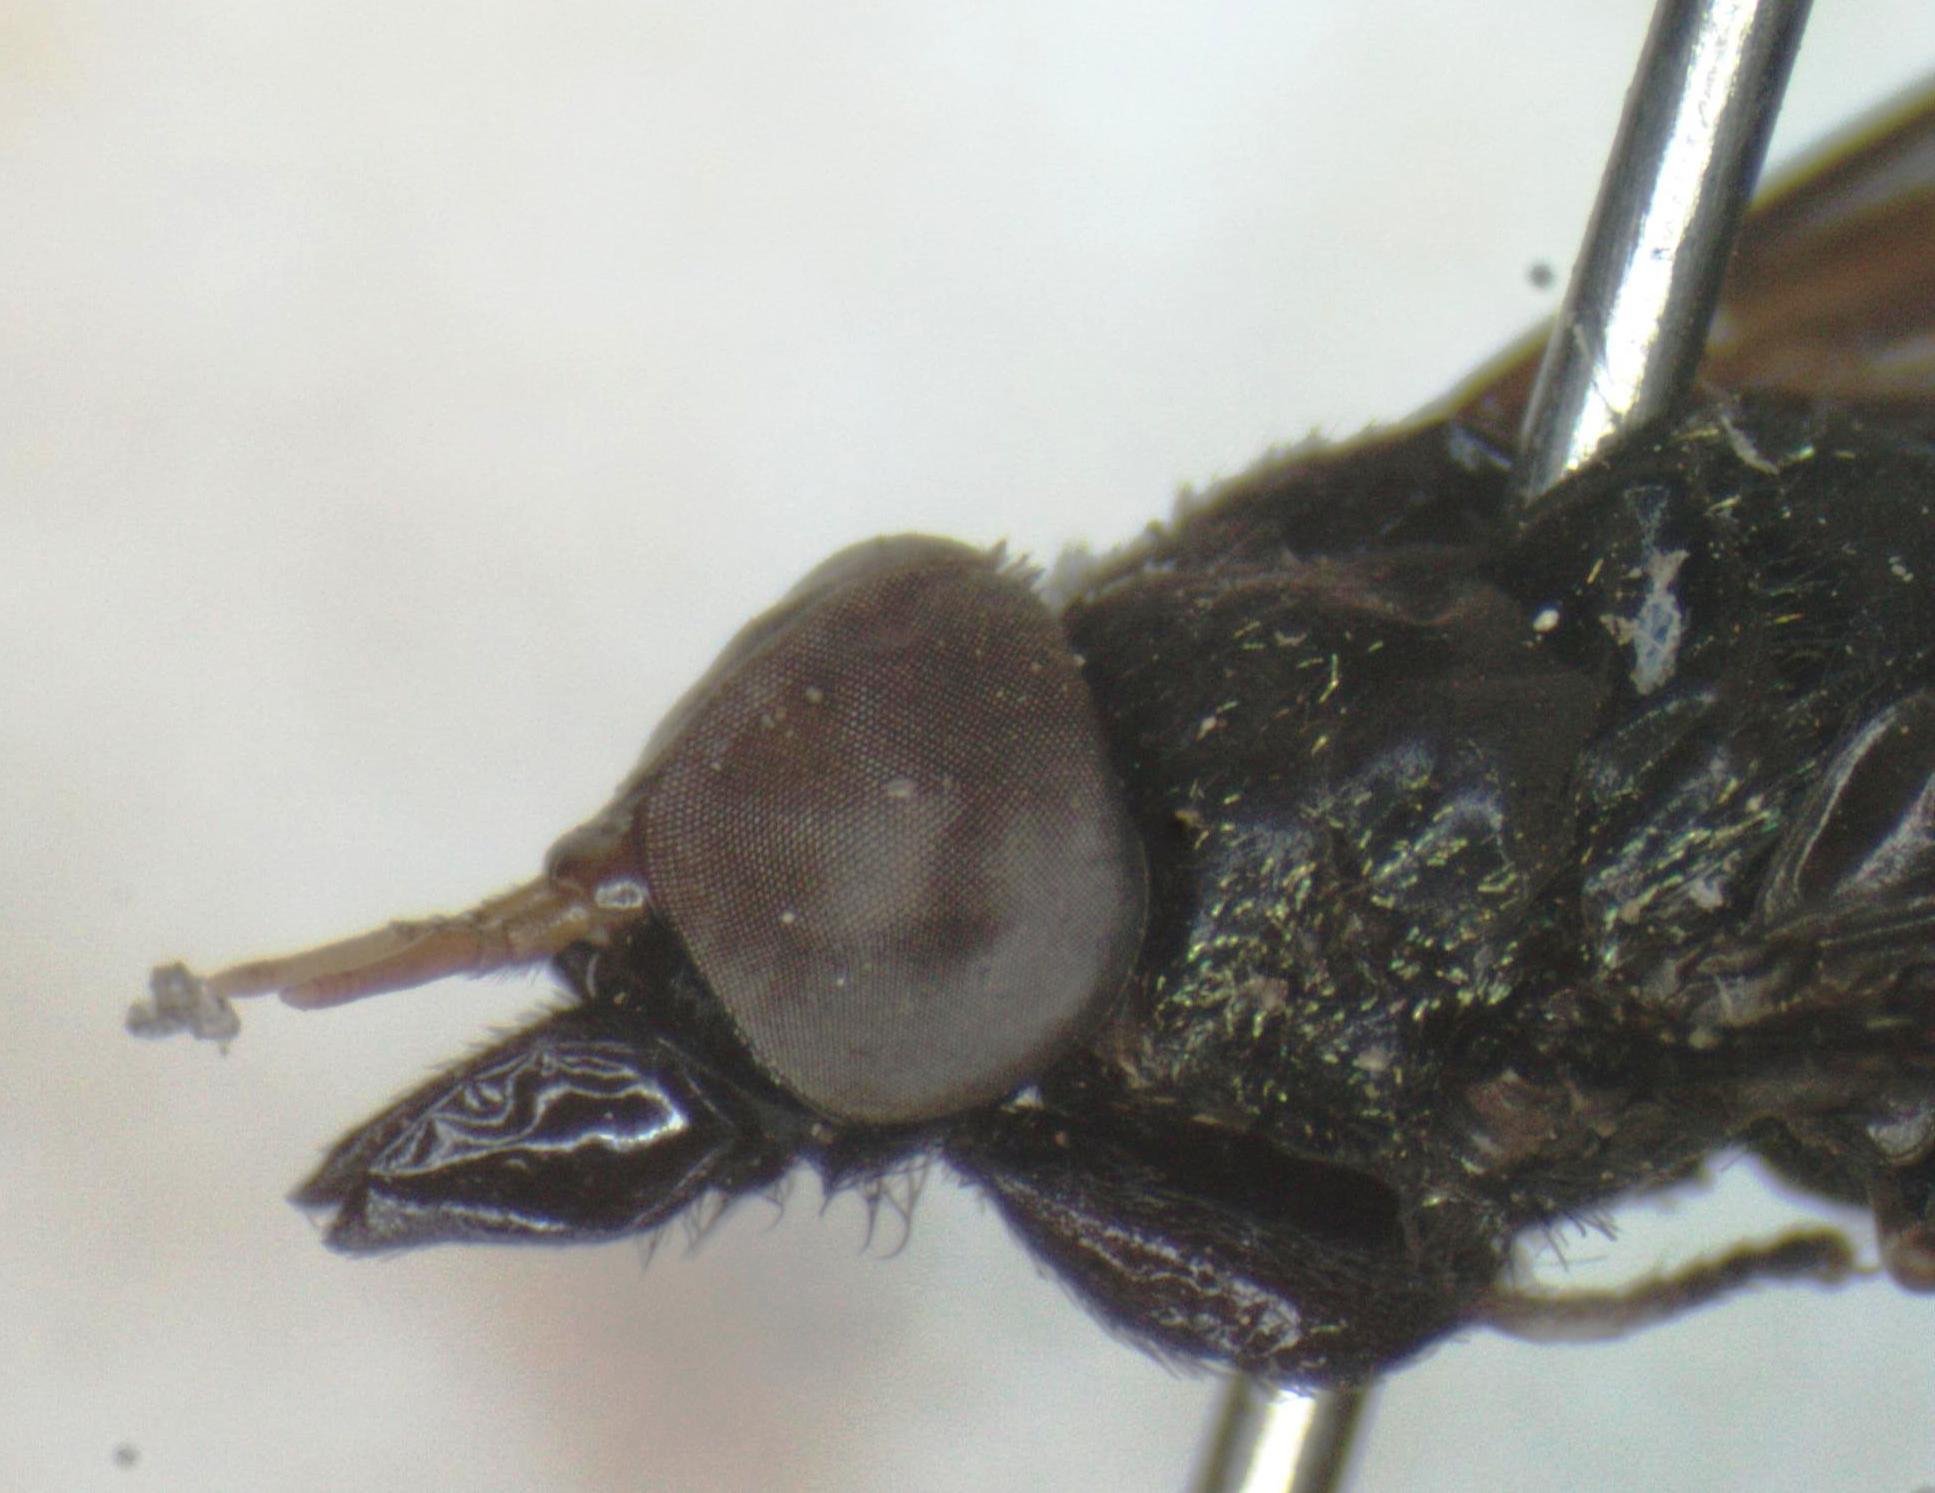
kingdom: Animalia
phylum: Arthropoda
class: Insecta
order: Diptera
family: Tabanidae
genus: Lepiselaga
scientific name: Lepiselaga crassipes
